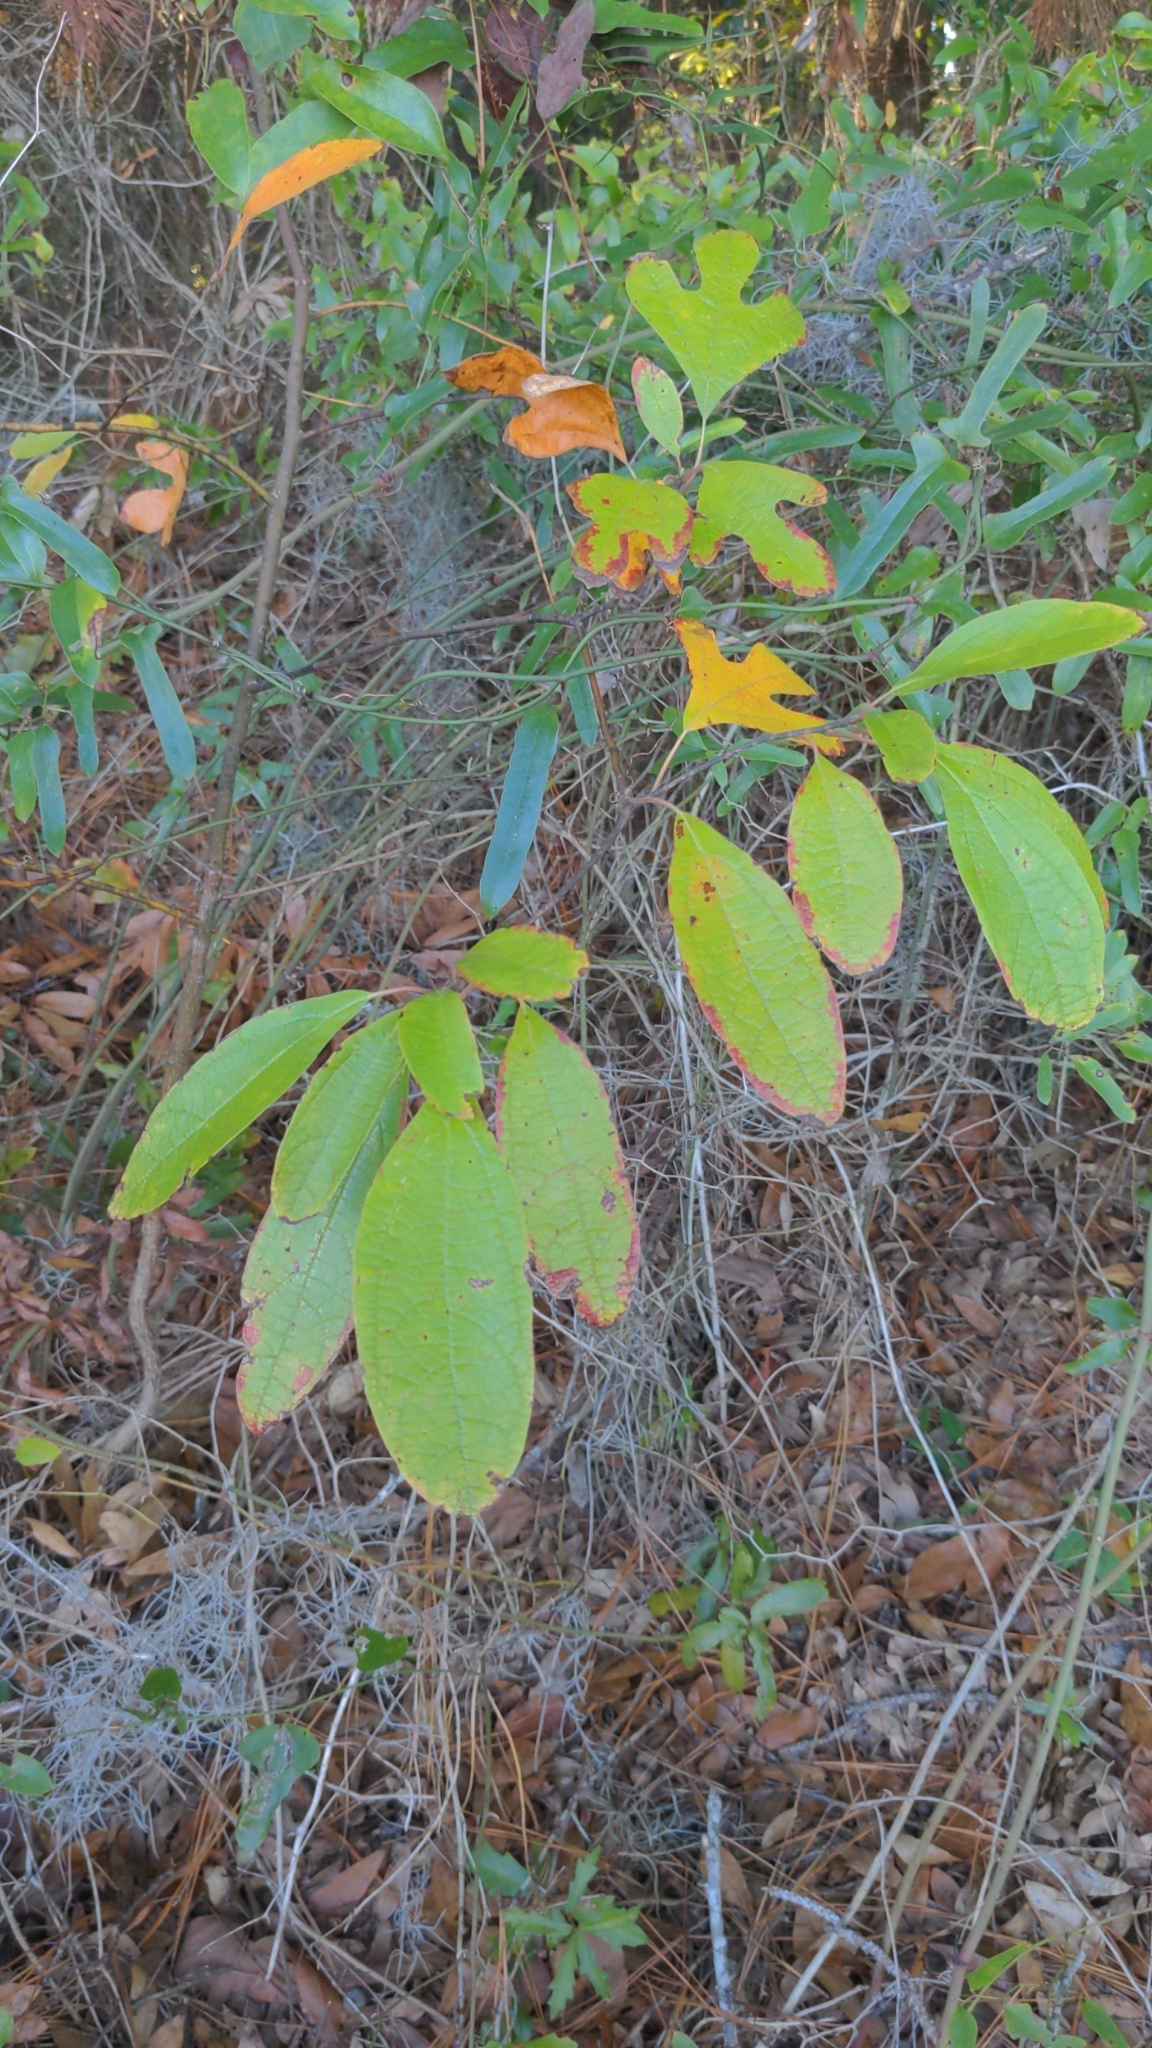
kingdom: Plantae
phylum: Tracheophyta
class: Magnoliopsida
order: Laurales
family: Lauraceae
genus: Sassafras
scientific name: Sassafras albidum
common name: Sassafras
